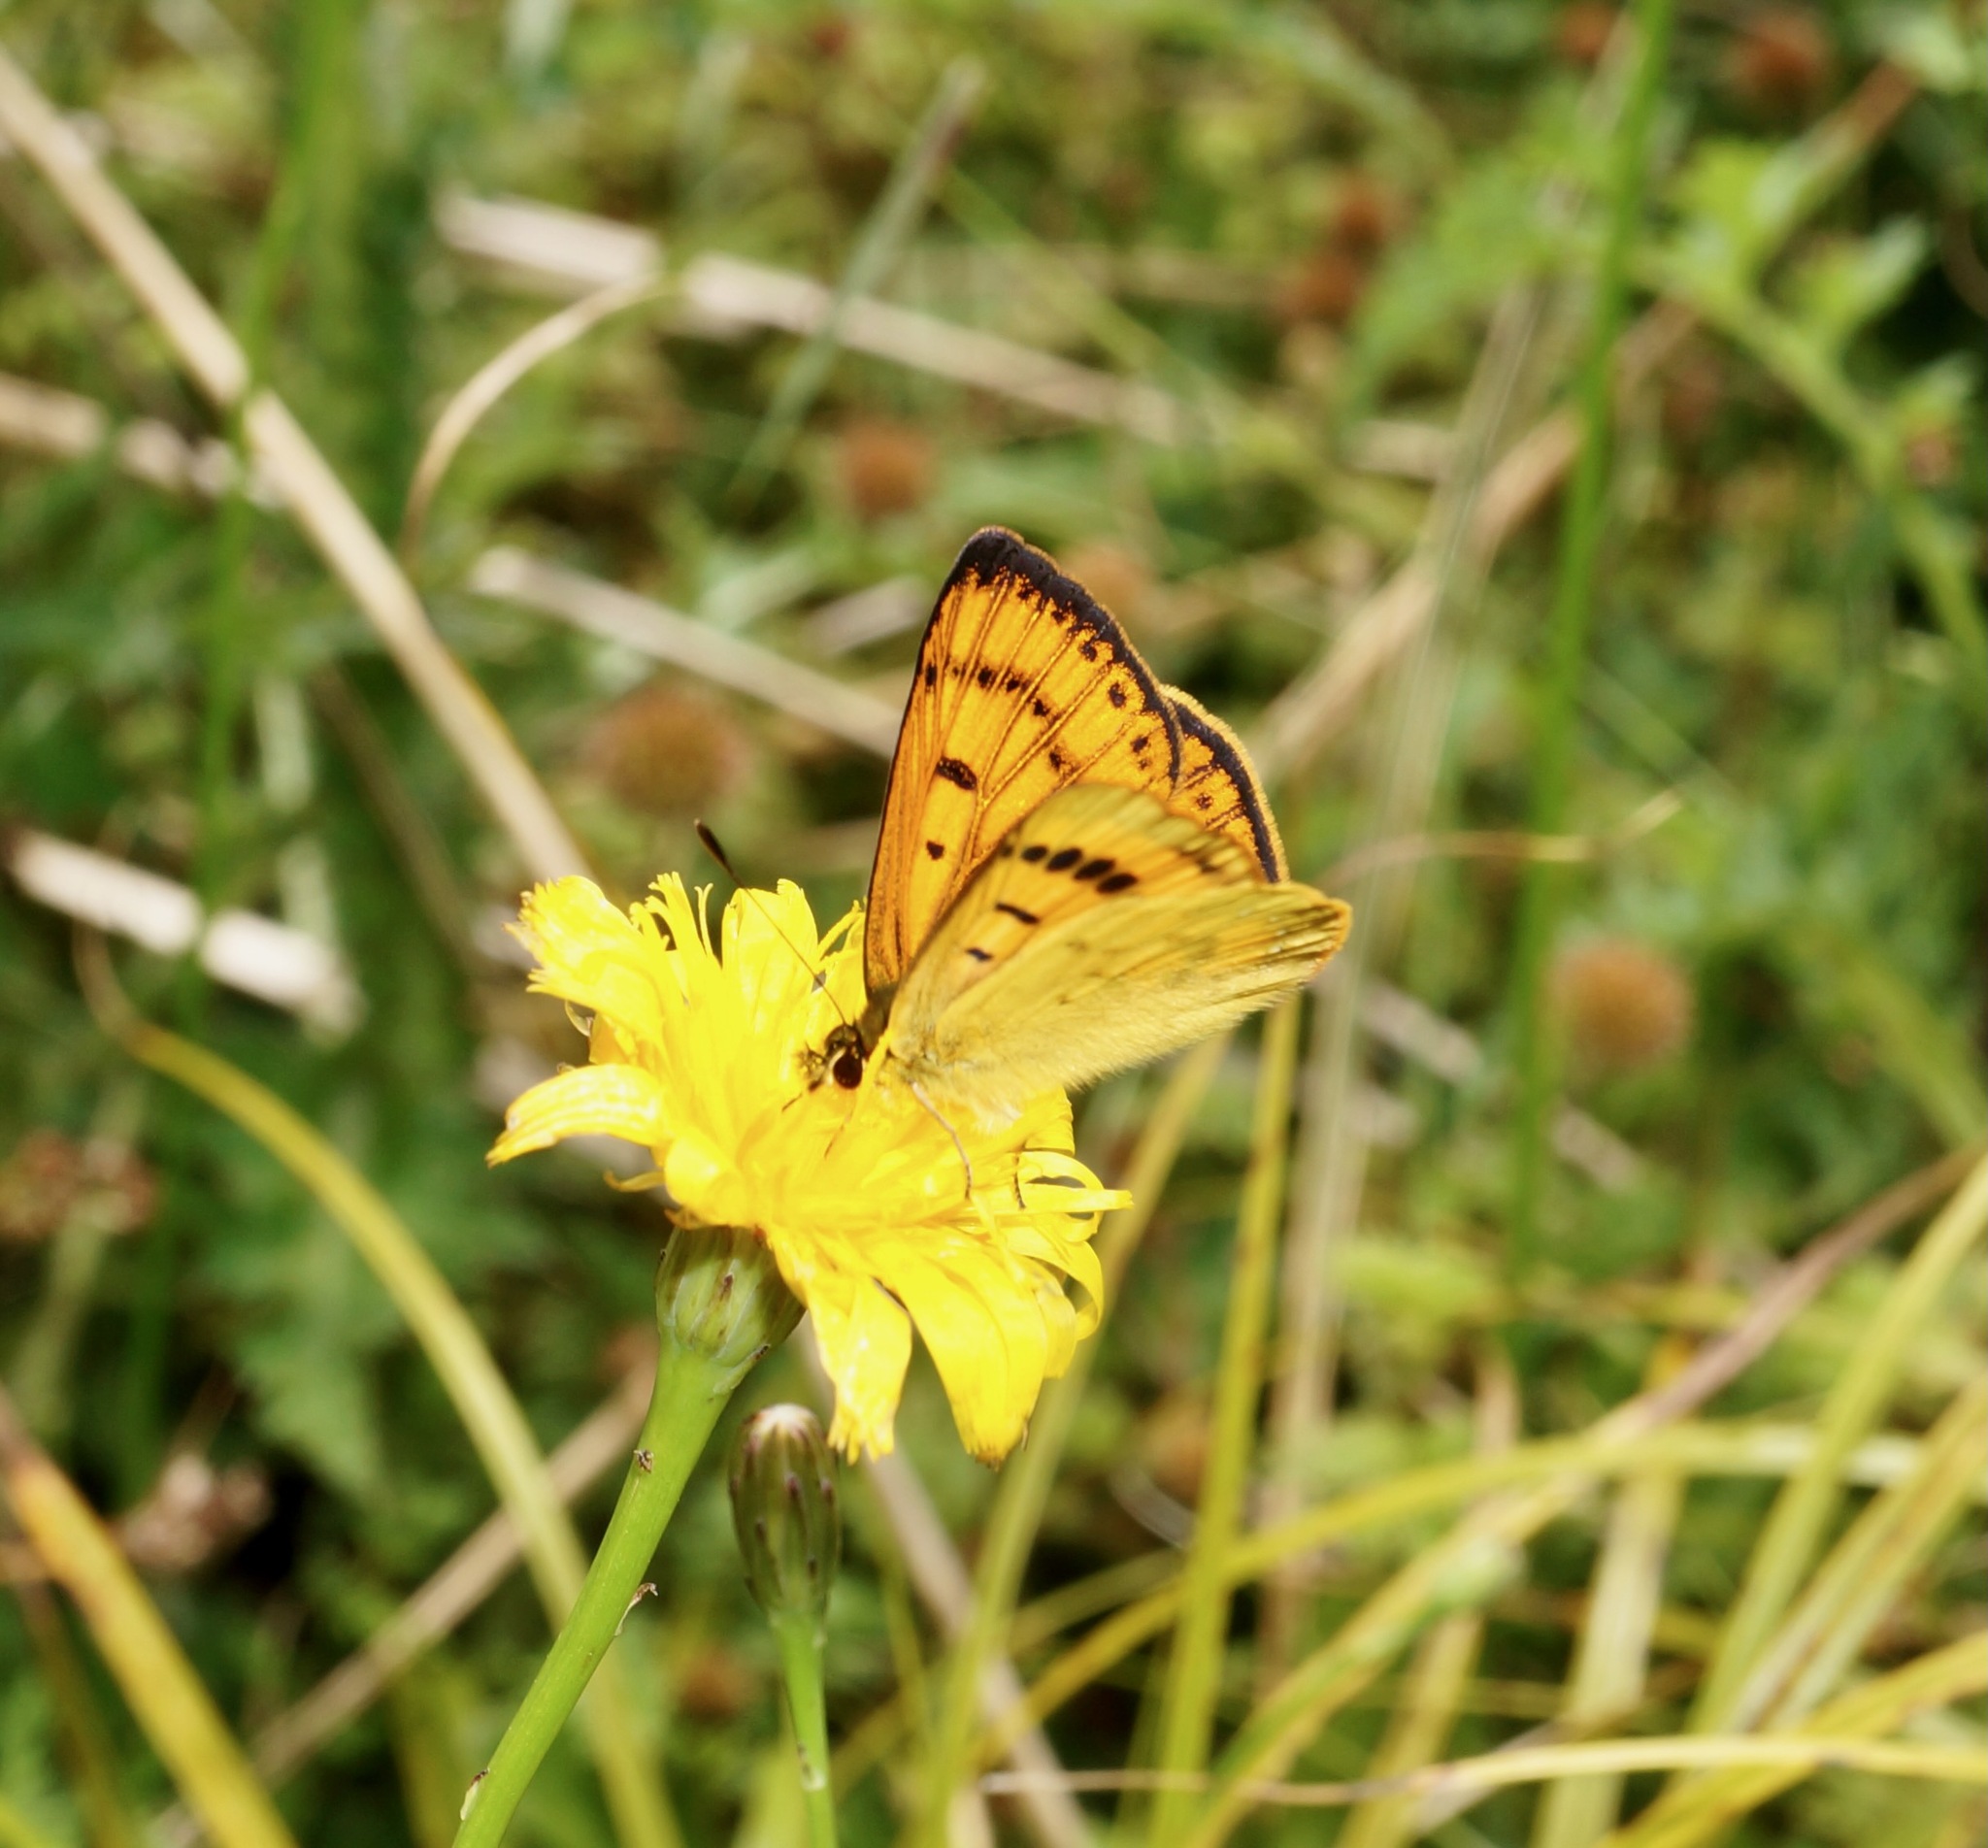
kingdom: Animalia
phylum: Arthropoda
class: Insecta
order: Lepidoptera
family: Lycaenidae
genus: Lycaena
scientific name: Lycaena salustius
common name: North island coastal copper
